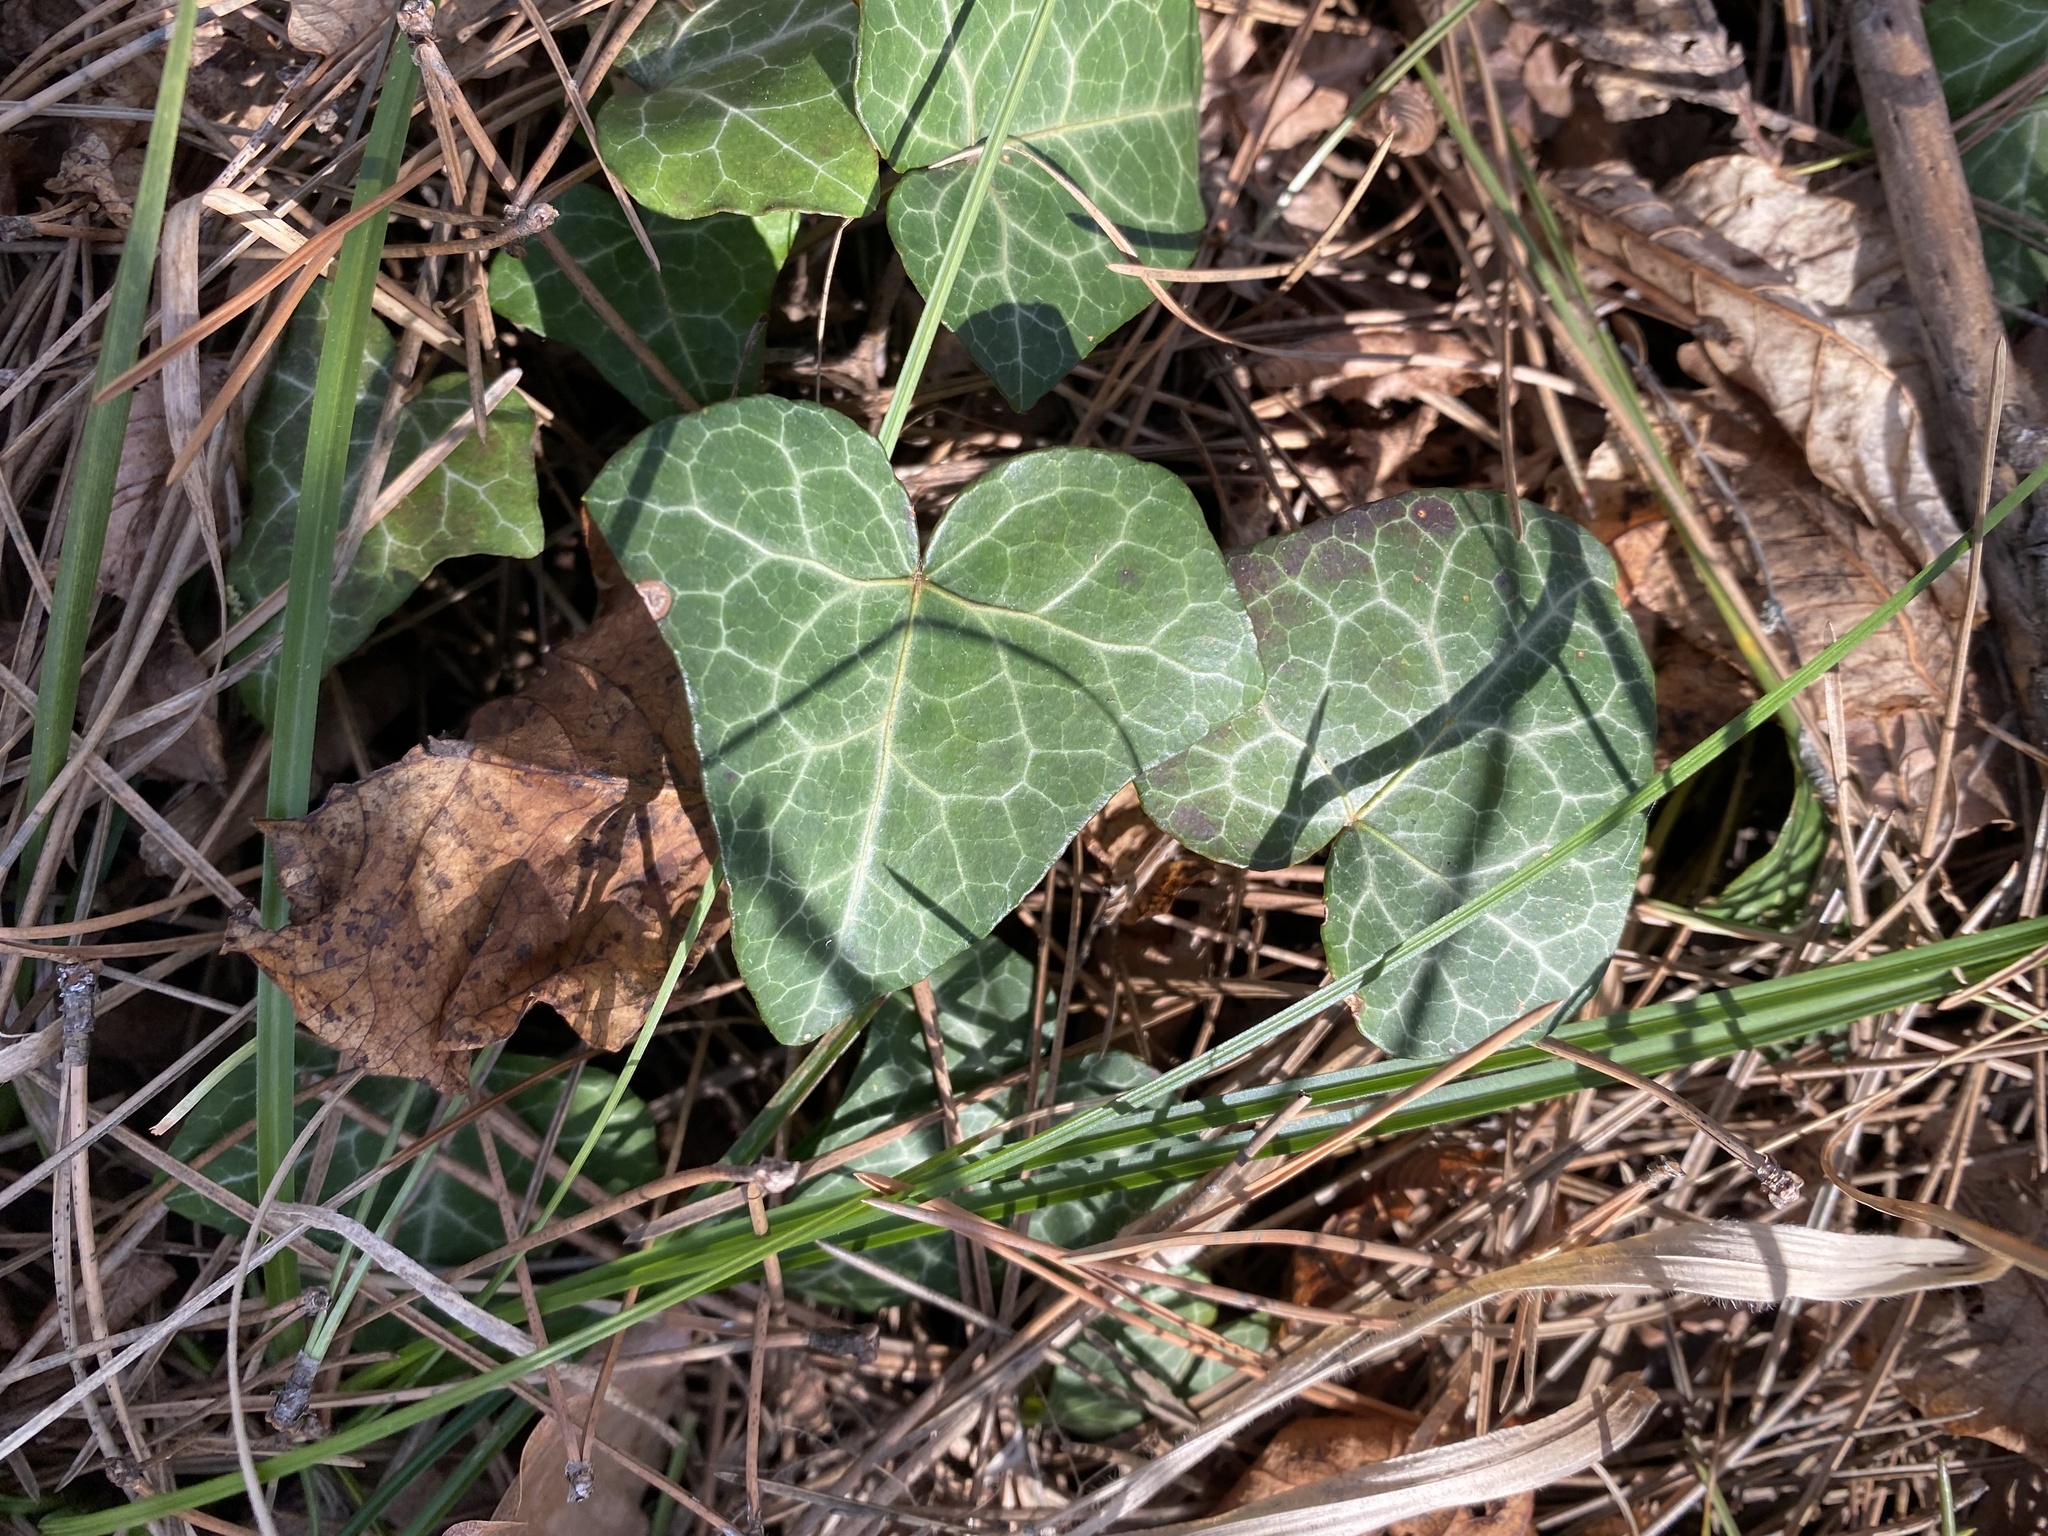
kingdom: Plantae
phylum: Tracheophyta
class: Magnoliopsida
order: Apiales
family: Araliaceae
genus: Hedera
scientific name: Hedera helix
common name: Ivy
